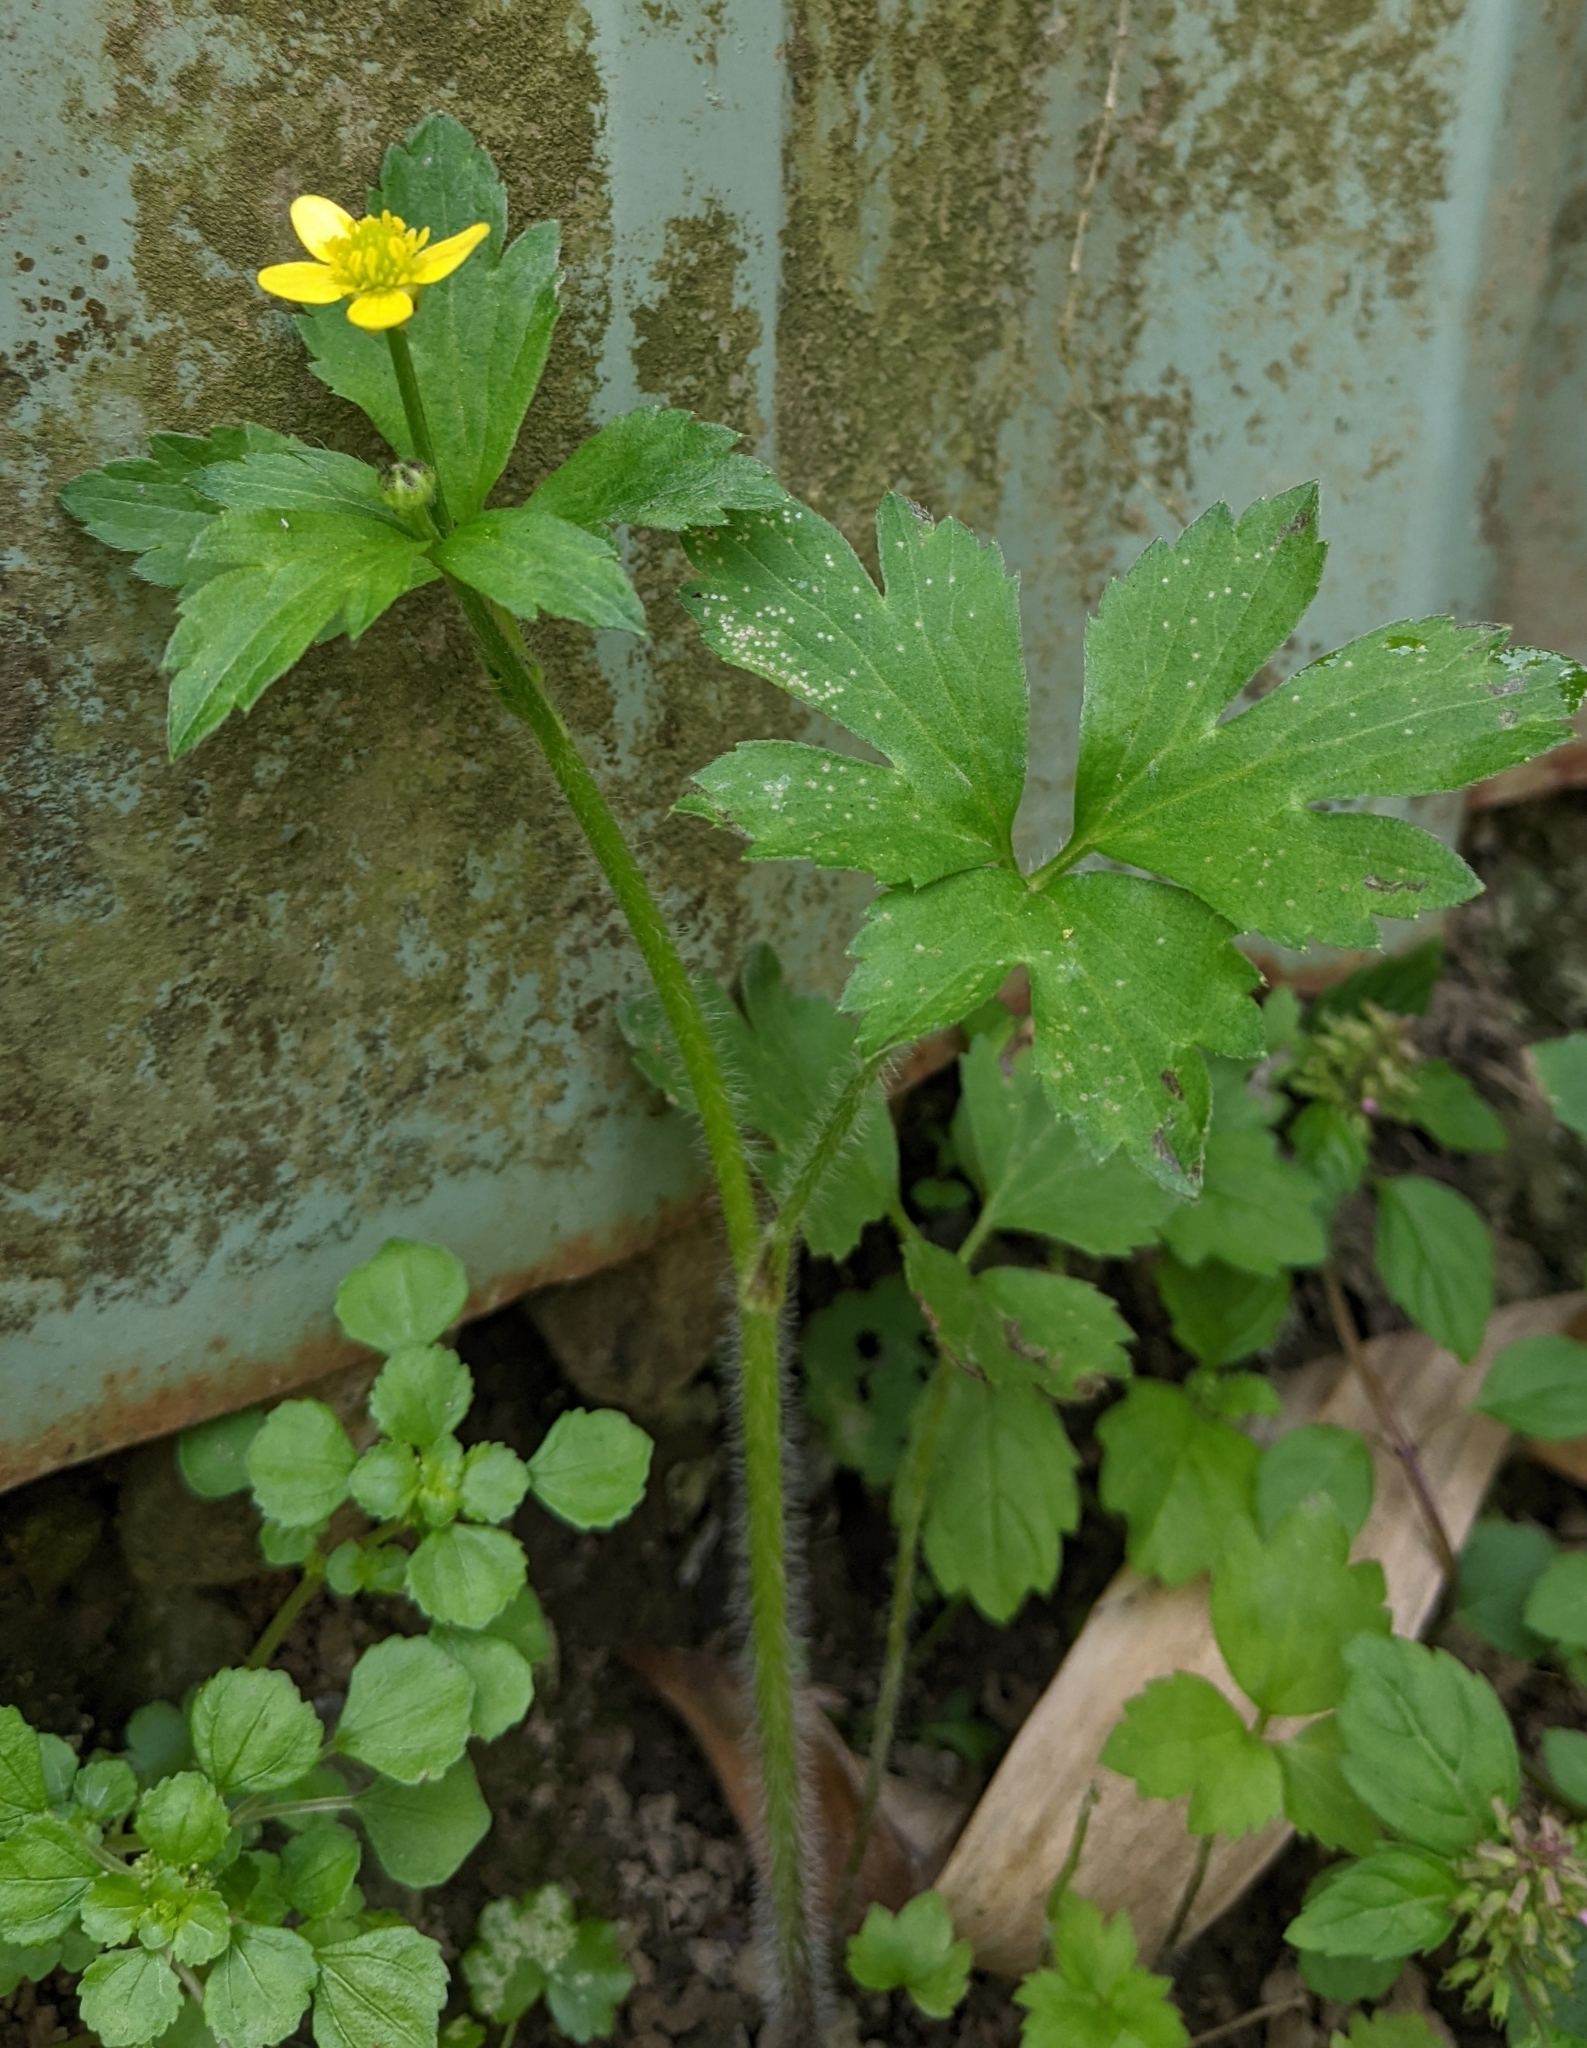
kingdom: Plantae
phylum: Tracheophyta
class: Magnoliopsida
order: Ranunculales
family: Ranunculaceae
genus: Ranunculus
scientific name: Ranunculus cantoniensis
